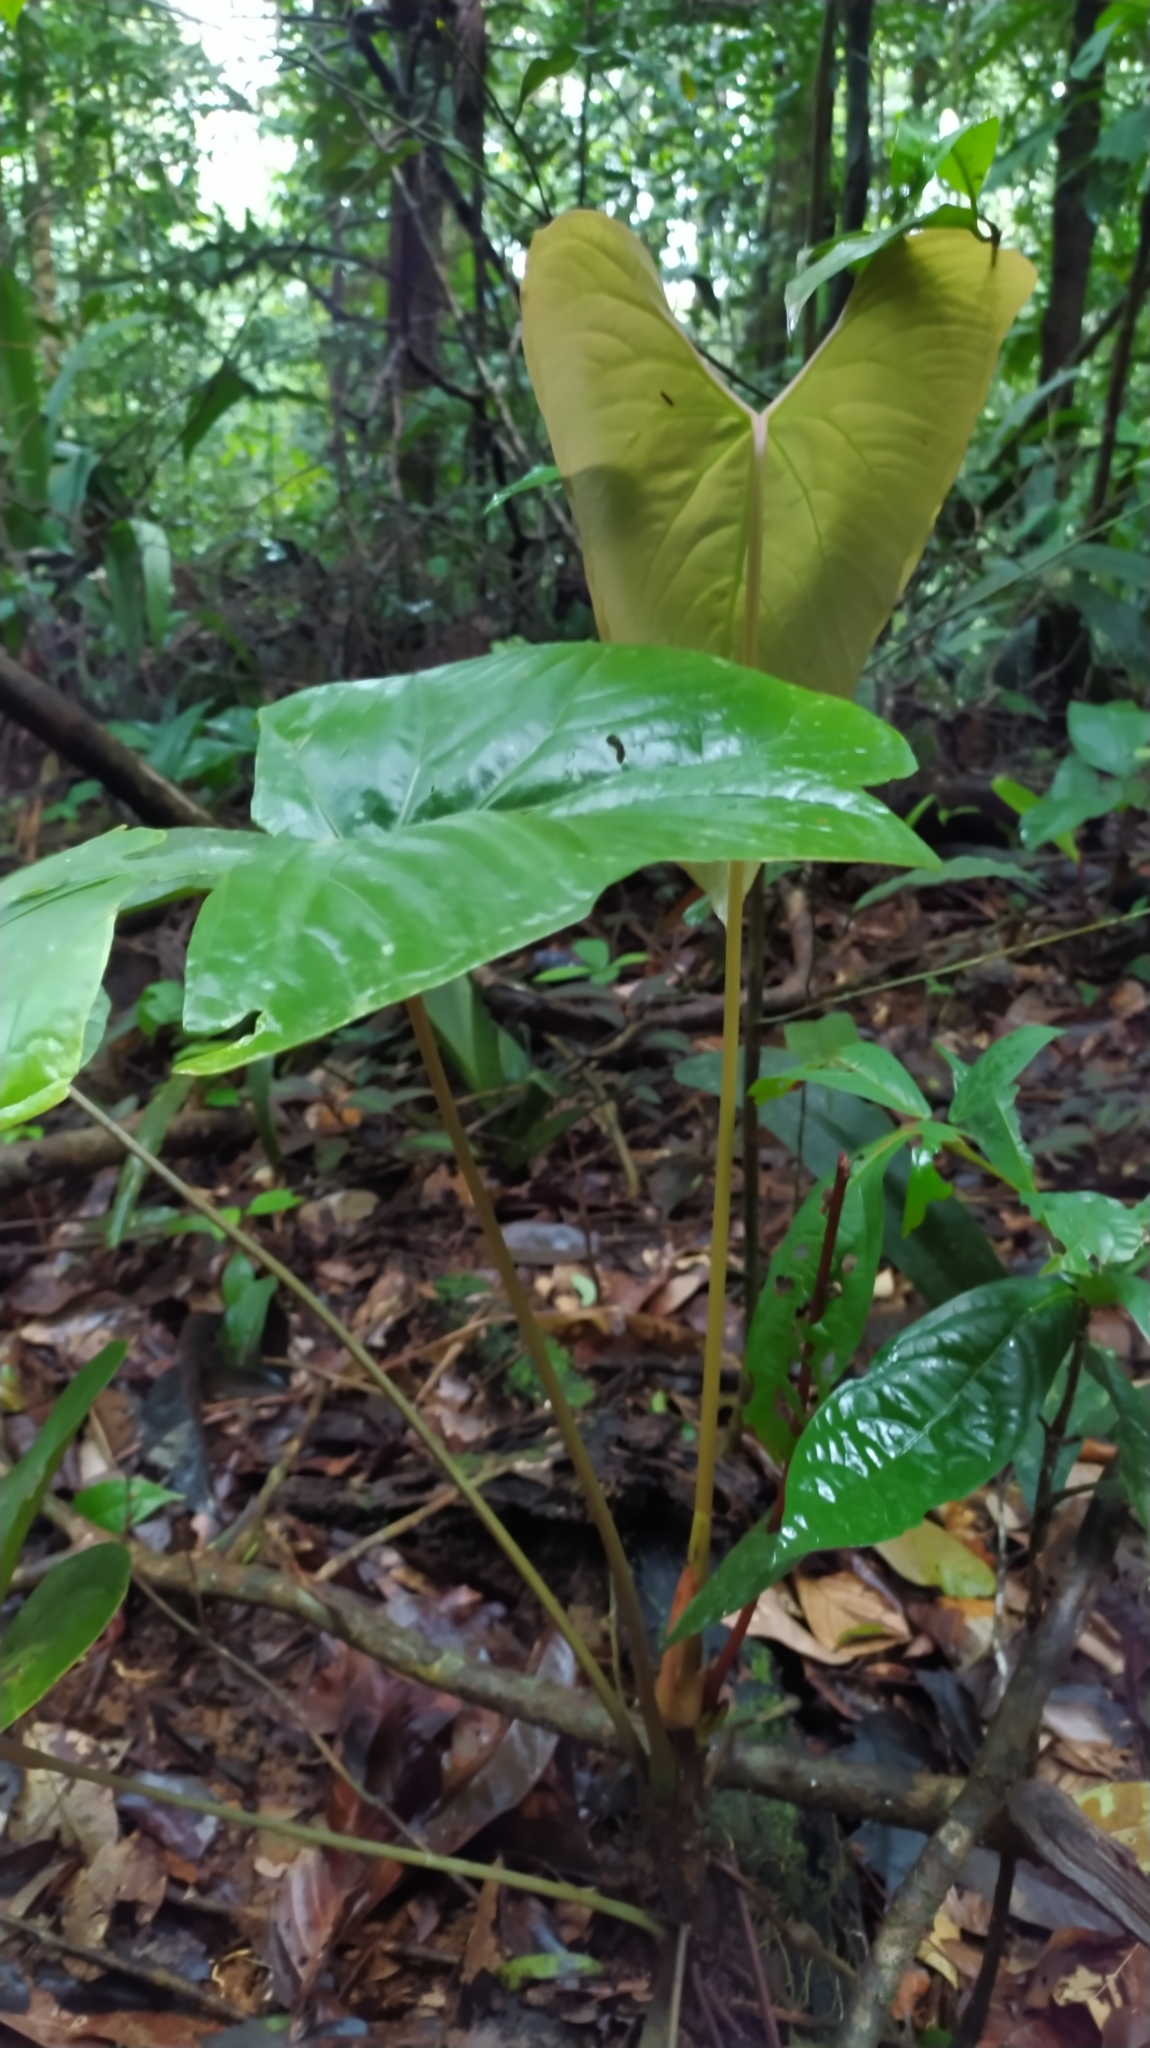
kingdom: Plantae
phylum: Tracheophyta
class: Liliopsida
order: Alismatales
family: Araceae
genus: Anthurium
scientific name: Anthurium sagittatum
